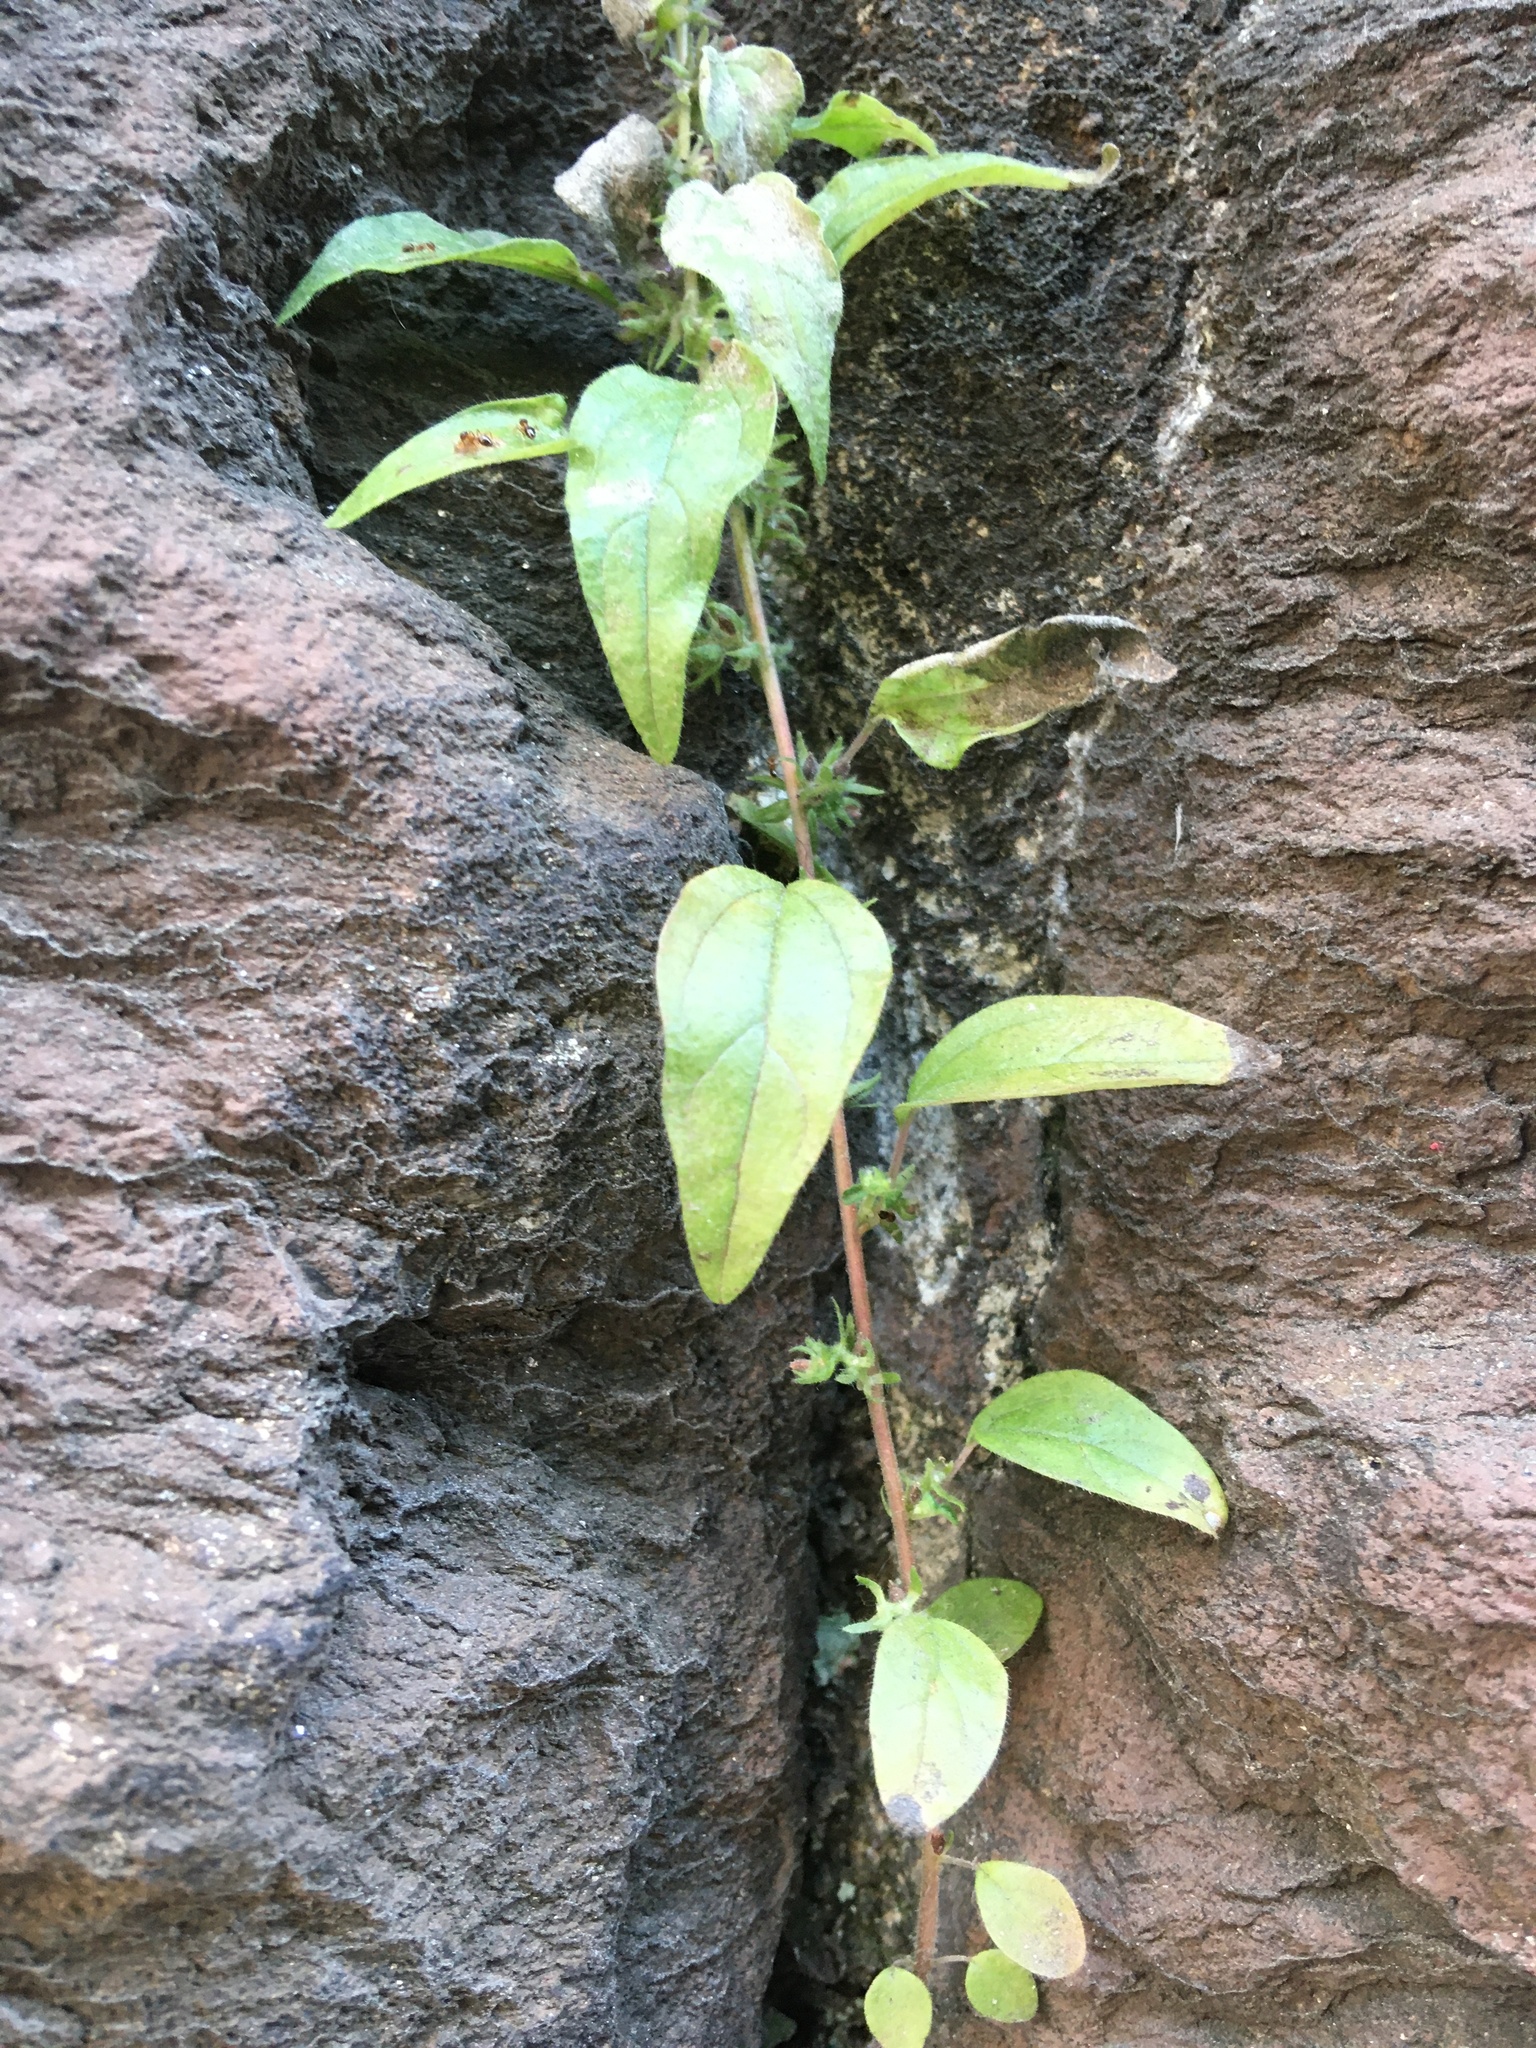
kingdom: Plantae
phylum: Tracheophyta
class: Magnoliopsida
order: Rosales
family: Urticaceae
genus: Parietaria
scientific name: Parietaria pensylvanica
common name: Pennsylvania pellitory
